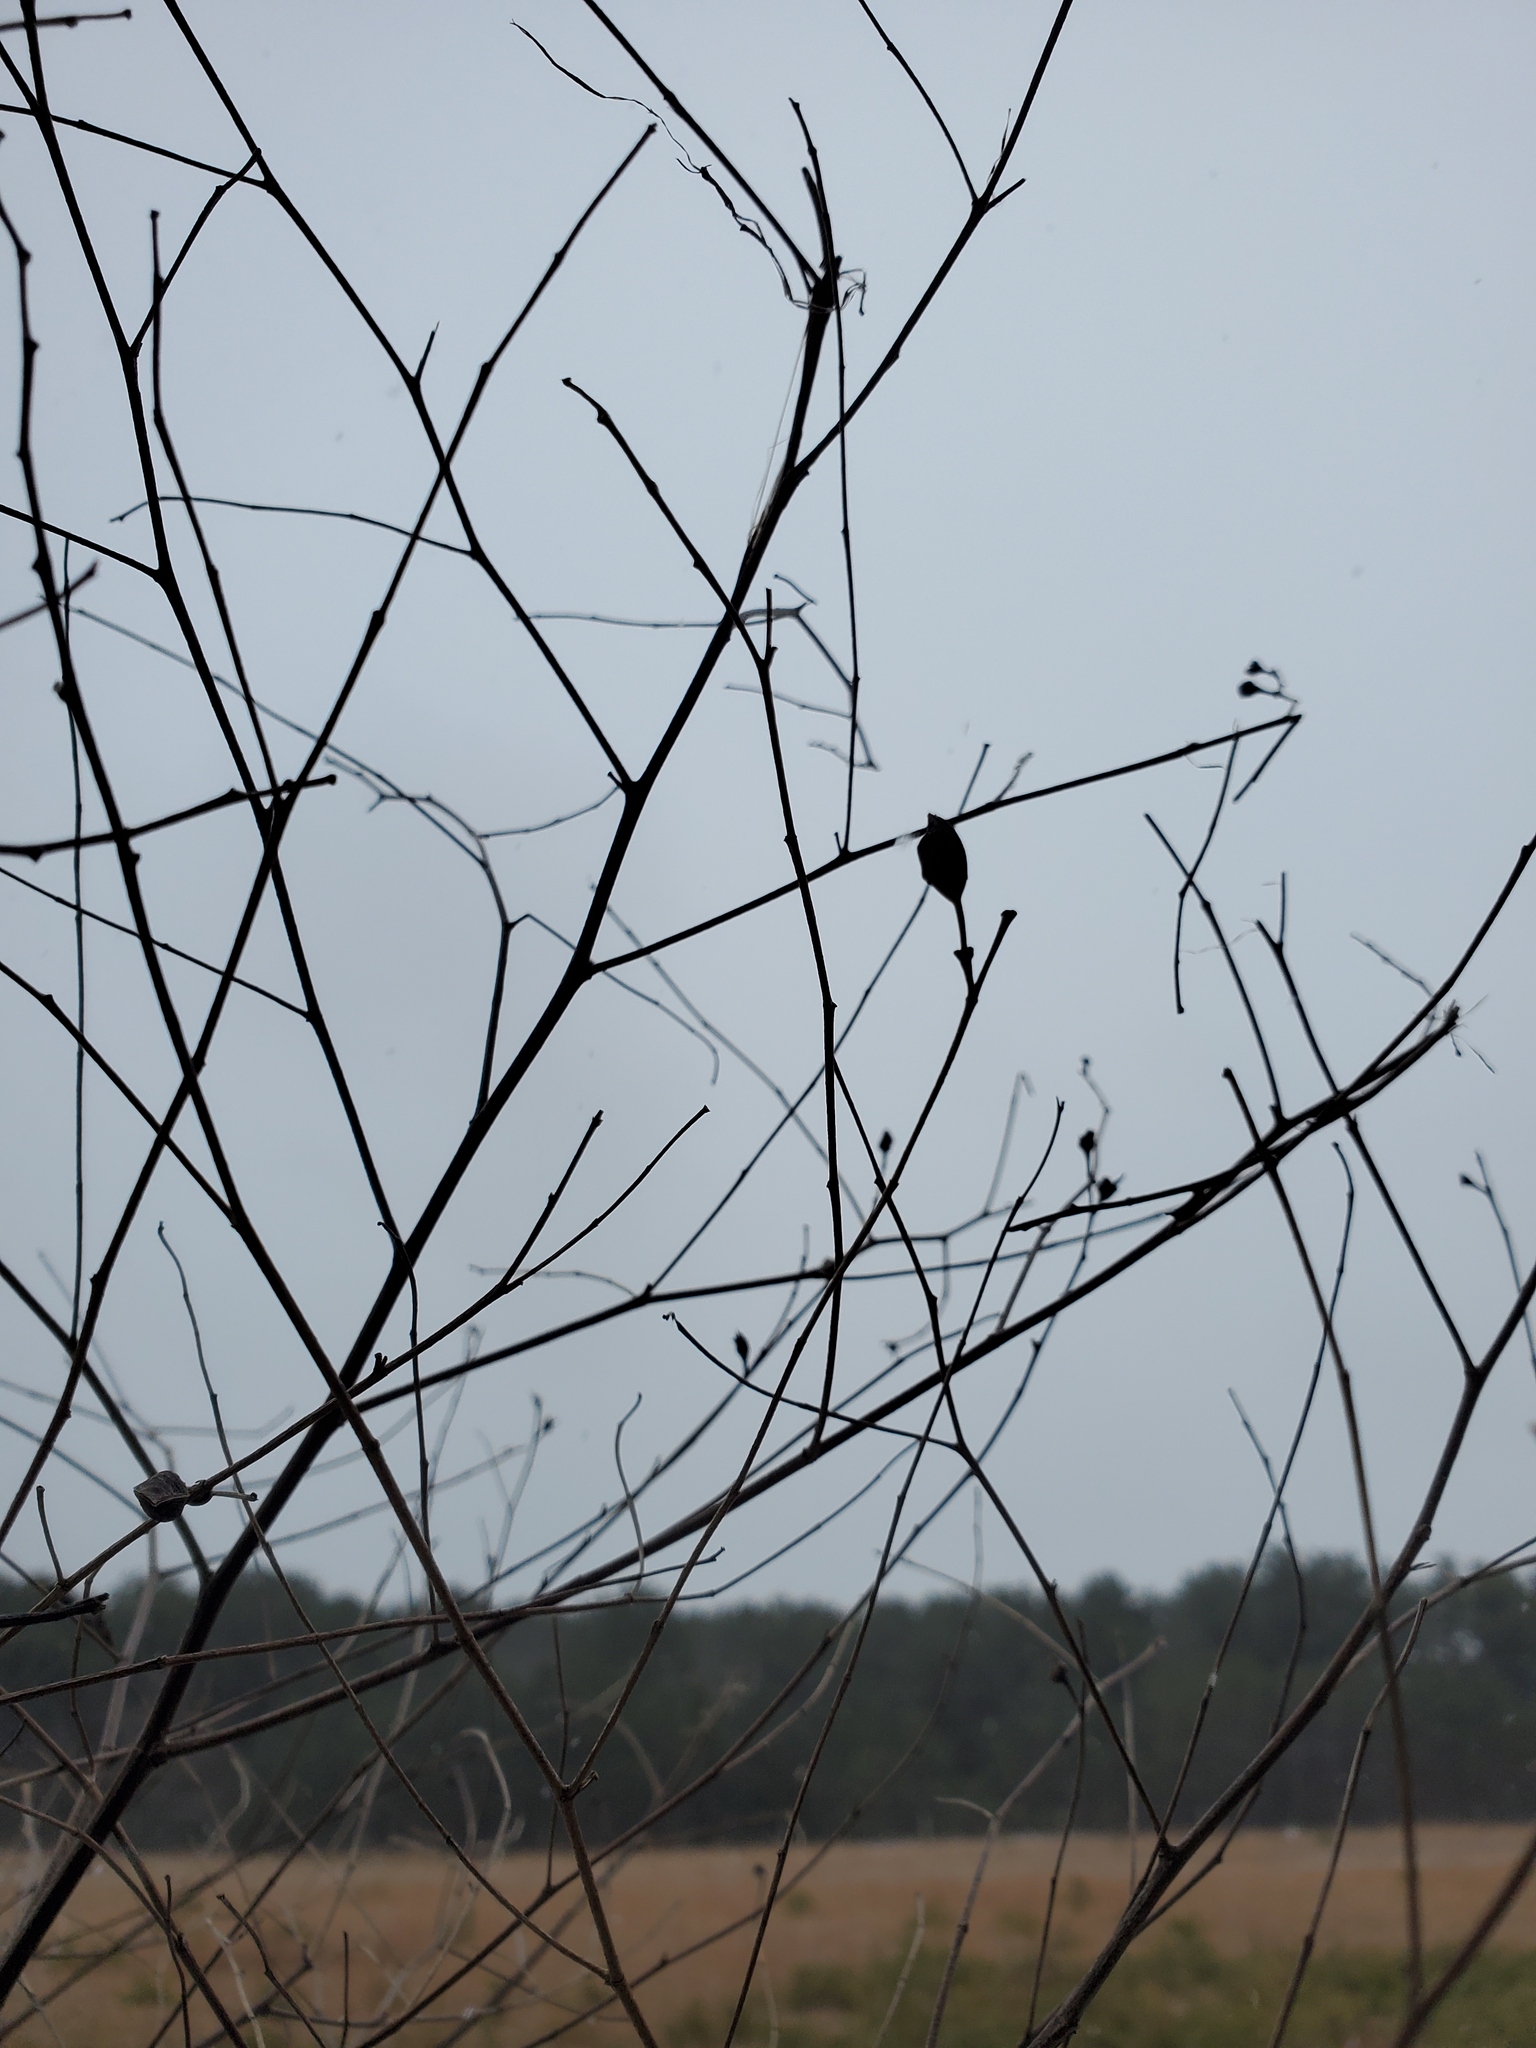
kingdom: Plantae
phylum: Tracheophyta
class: Magnoliopsida
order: Fabales
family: Fabaceae
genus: Baptisia
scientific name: Baptisia tinctoria
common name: Wild indigo
